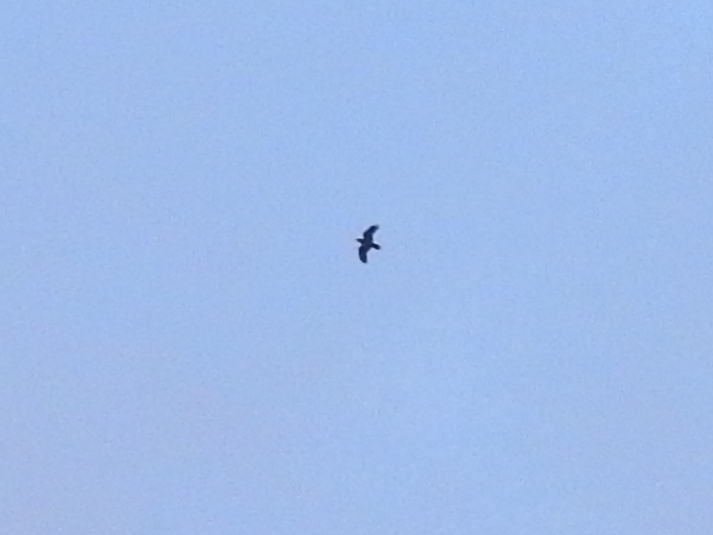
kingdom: Animalia
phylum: Chordata
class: Aves
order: Passeriformes
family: Corvidae
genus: Corvus
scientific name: Corvus corax
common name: Common raven
